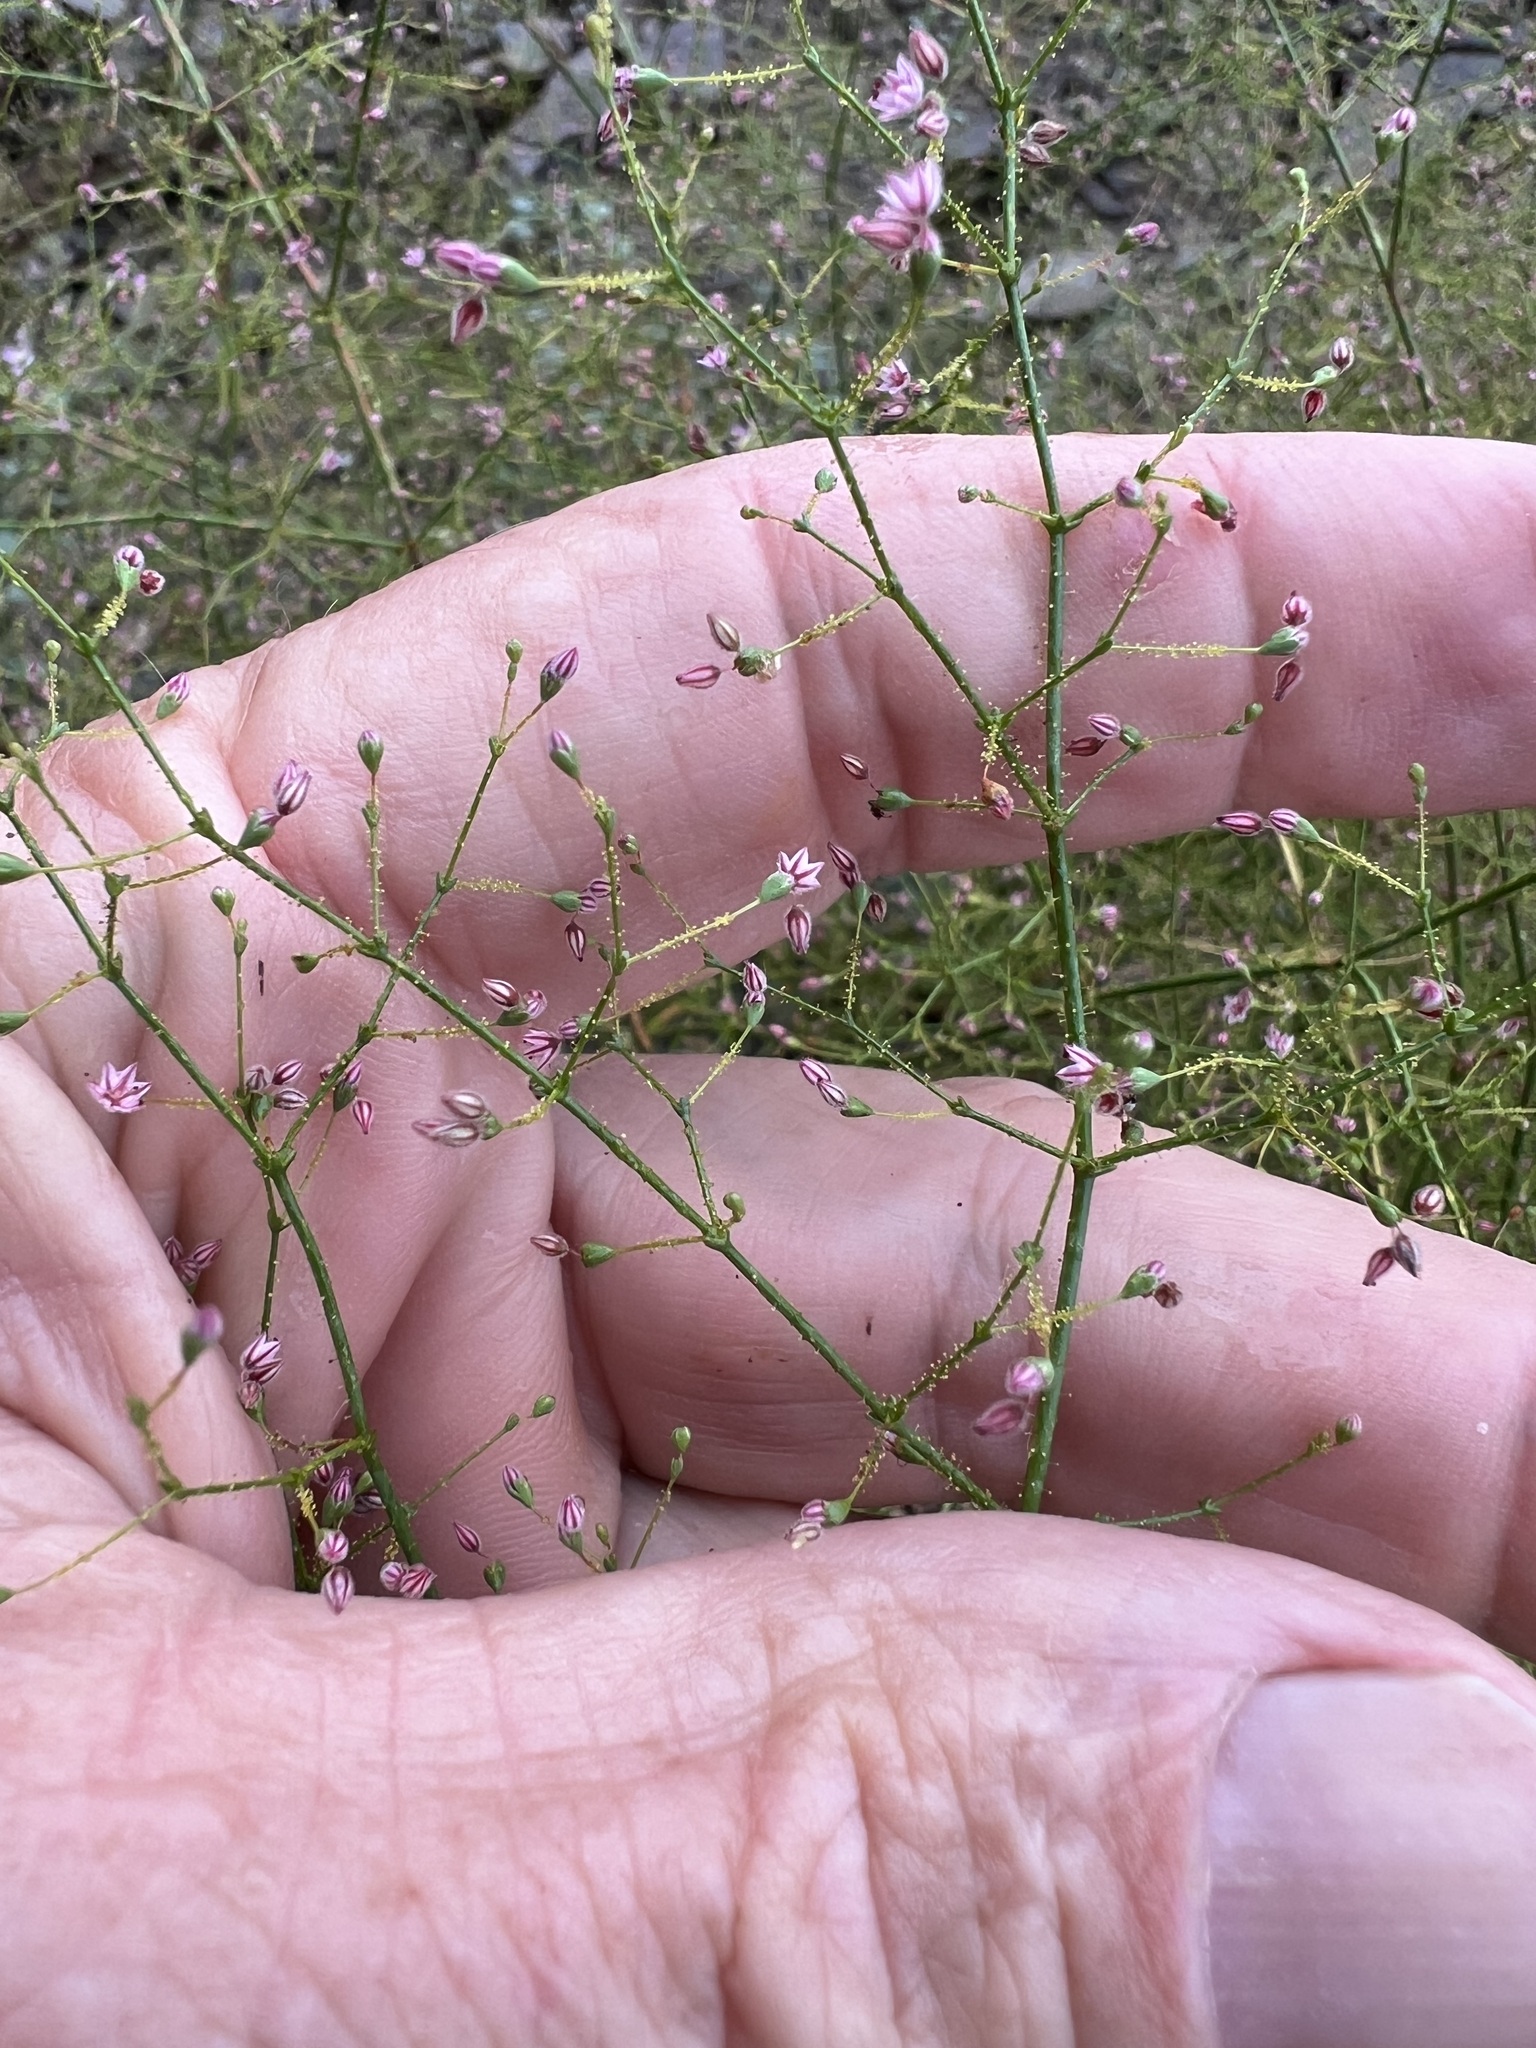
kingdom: Plantae
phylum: Tracheophyta
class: Magnoliopsida
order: Caryophyllales
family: Polygonaceae
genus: Eriogonum
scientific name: Eriogonum glandulosum
